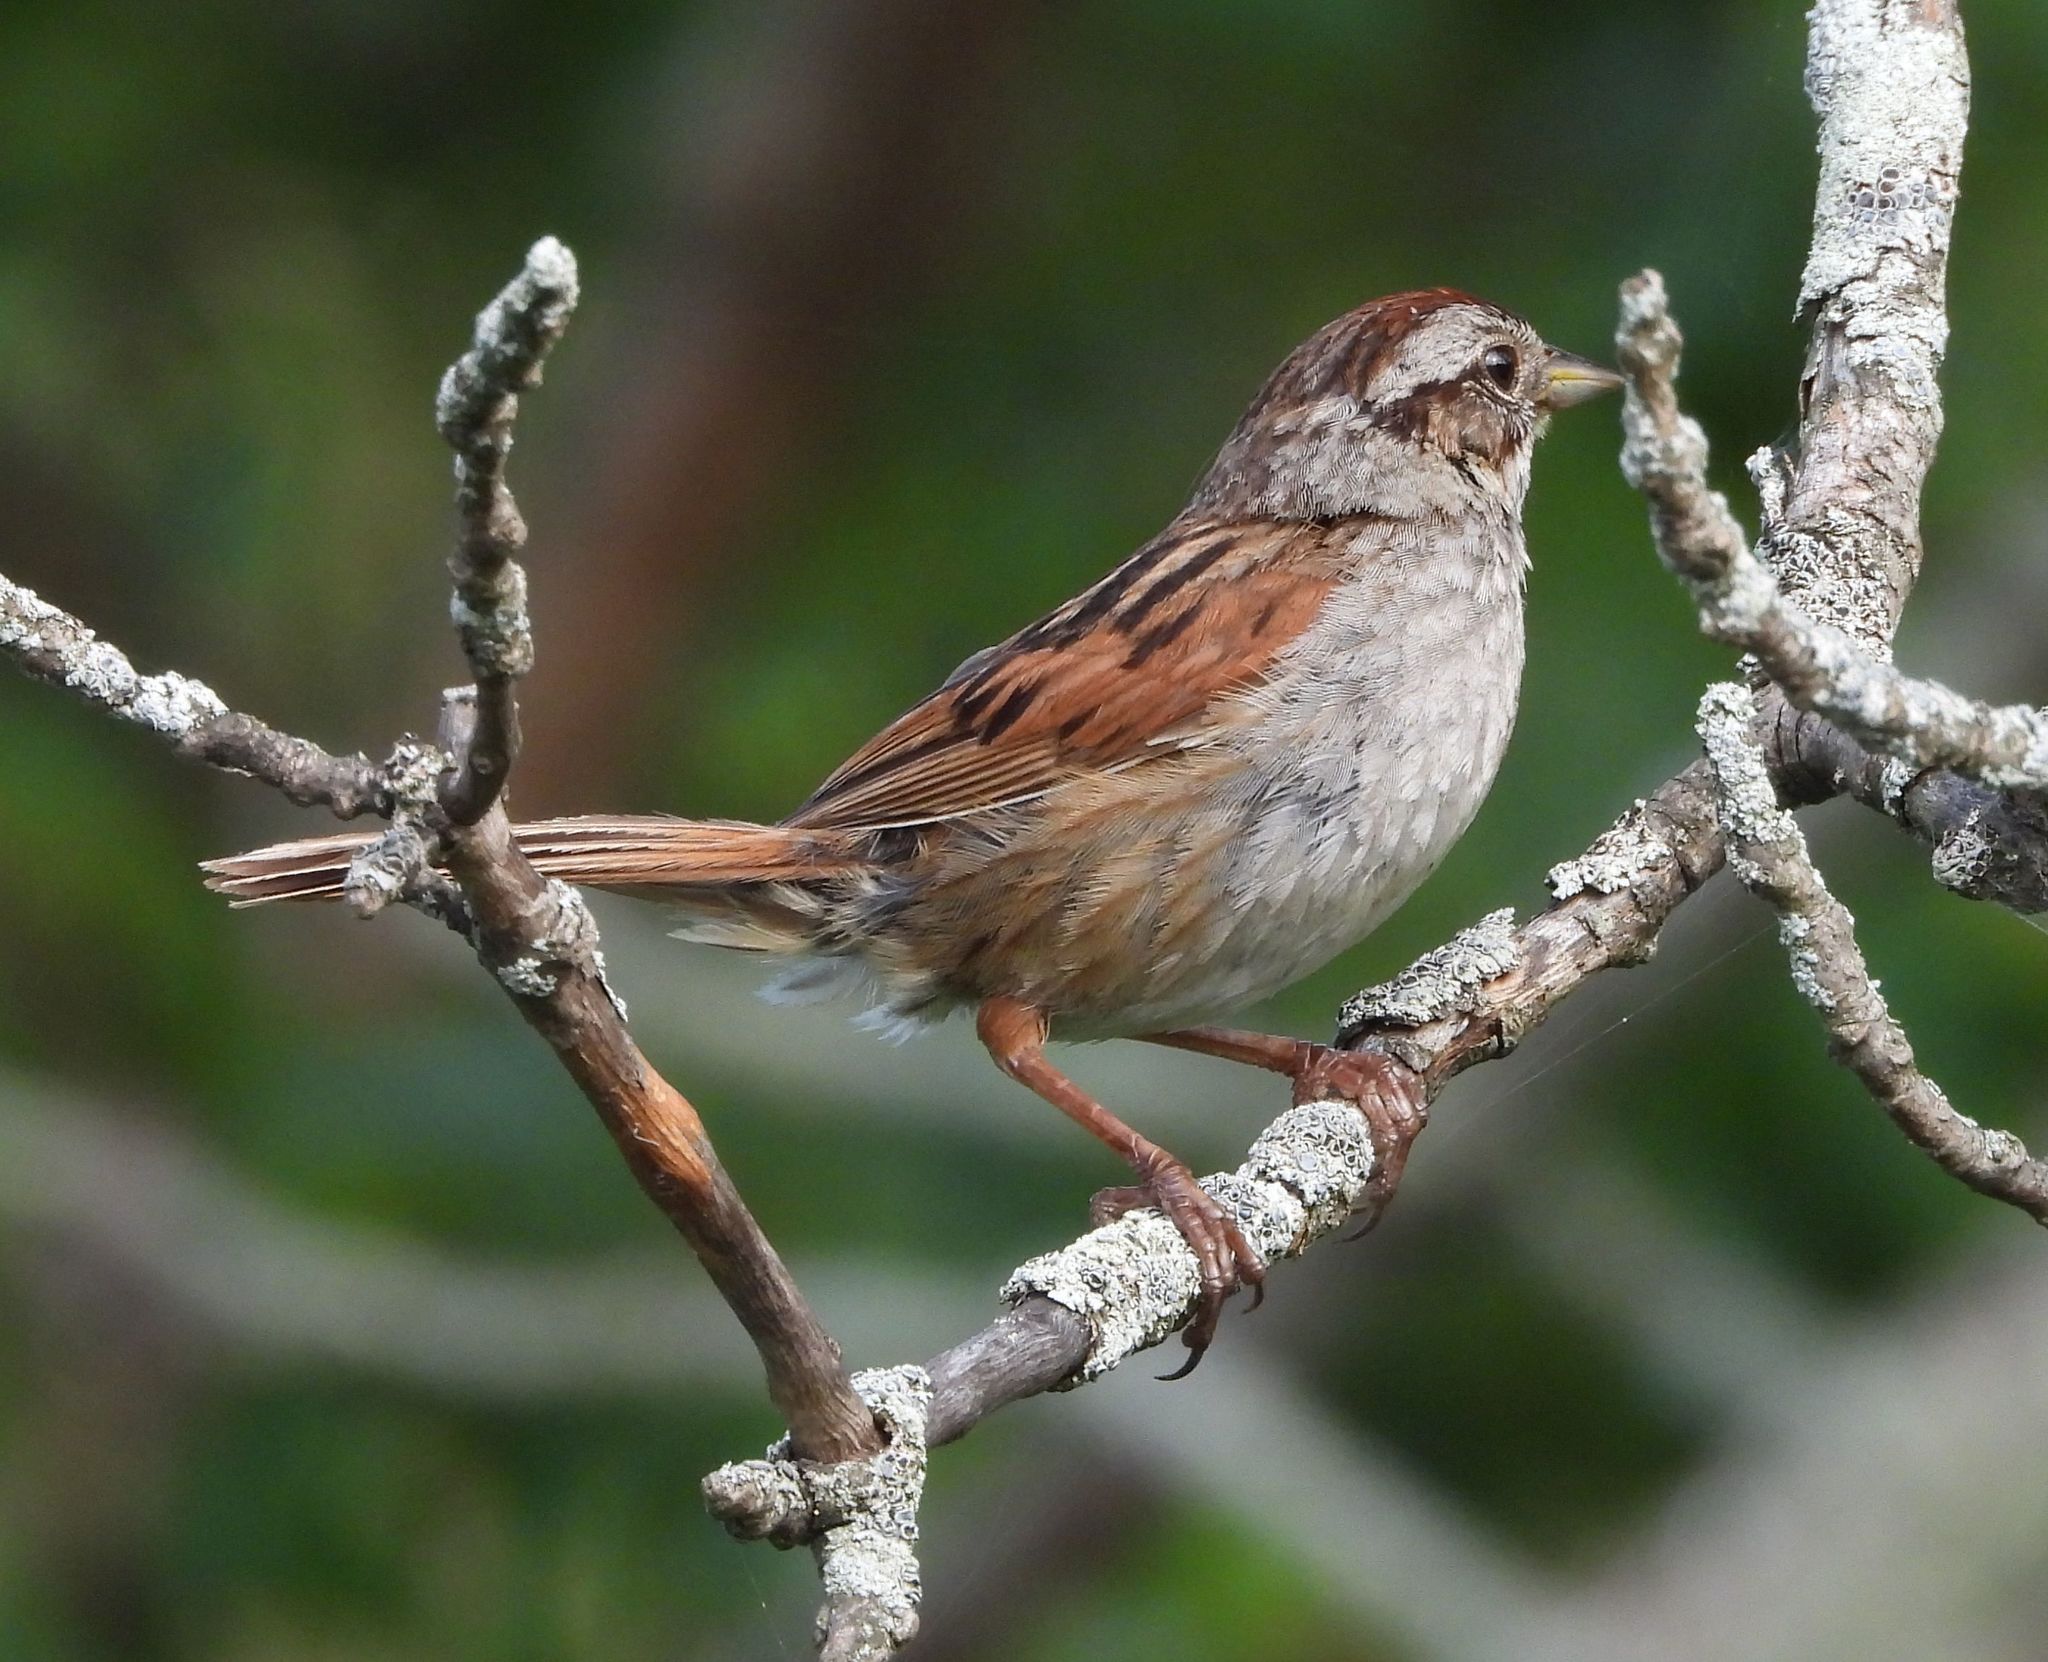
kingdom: Animalia
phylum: Chordata
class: Aves
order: Passeriformes
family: Passerellidae
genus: Melospiza
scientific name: Melospiza georgiana
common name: Swamp sparrow
